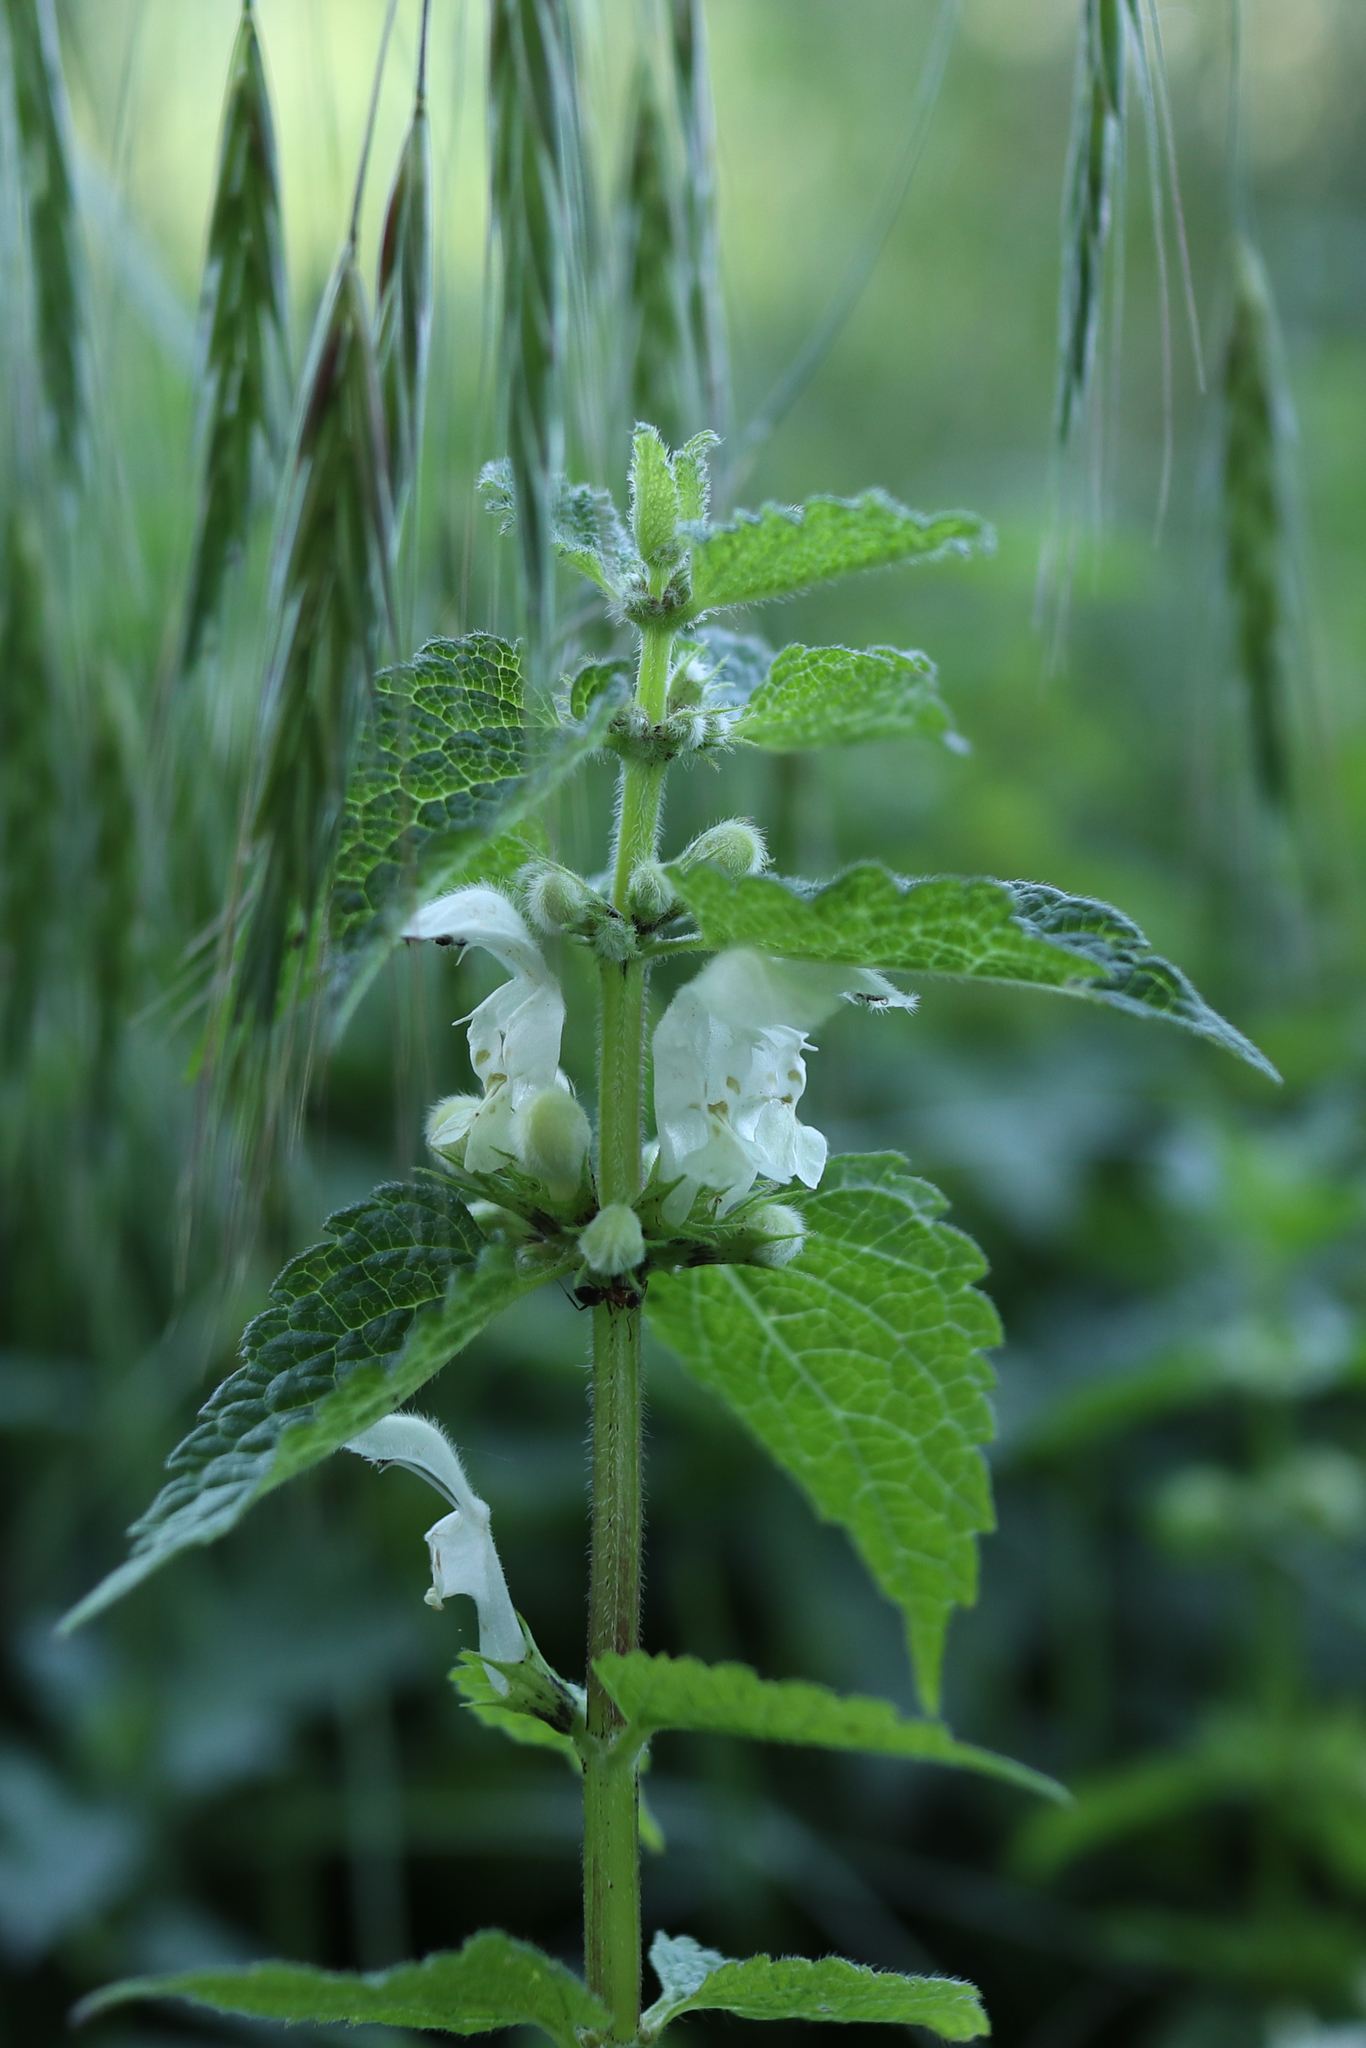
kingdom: Plantae
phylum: Tracheophyta
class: Magnoliopsida
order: Lamiales
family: Lamiaceae
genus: Lamium
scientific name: Lamium album
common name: White dead-nettle
